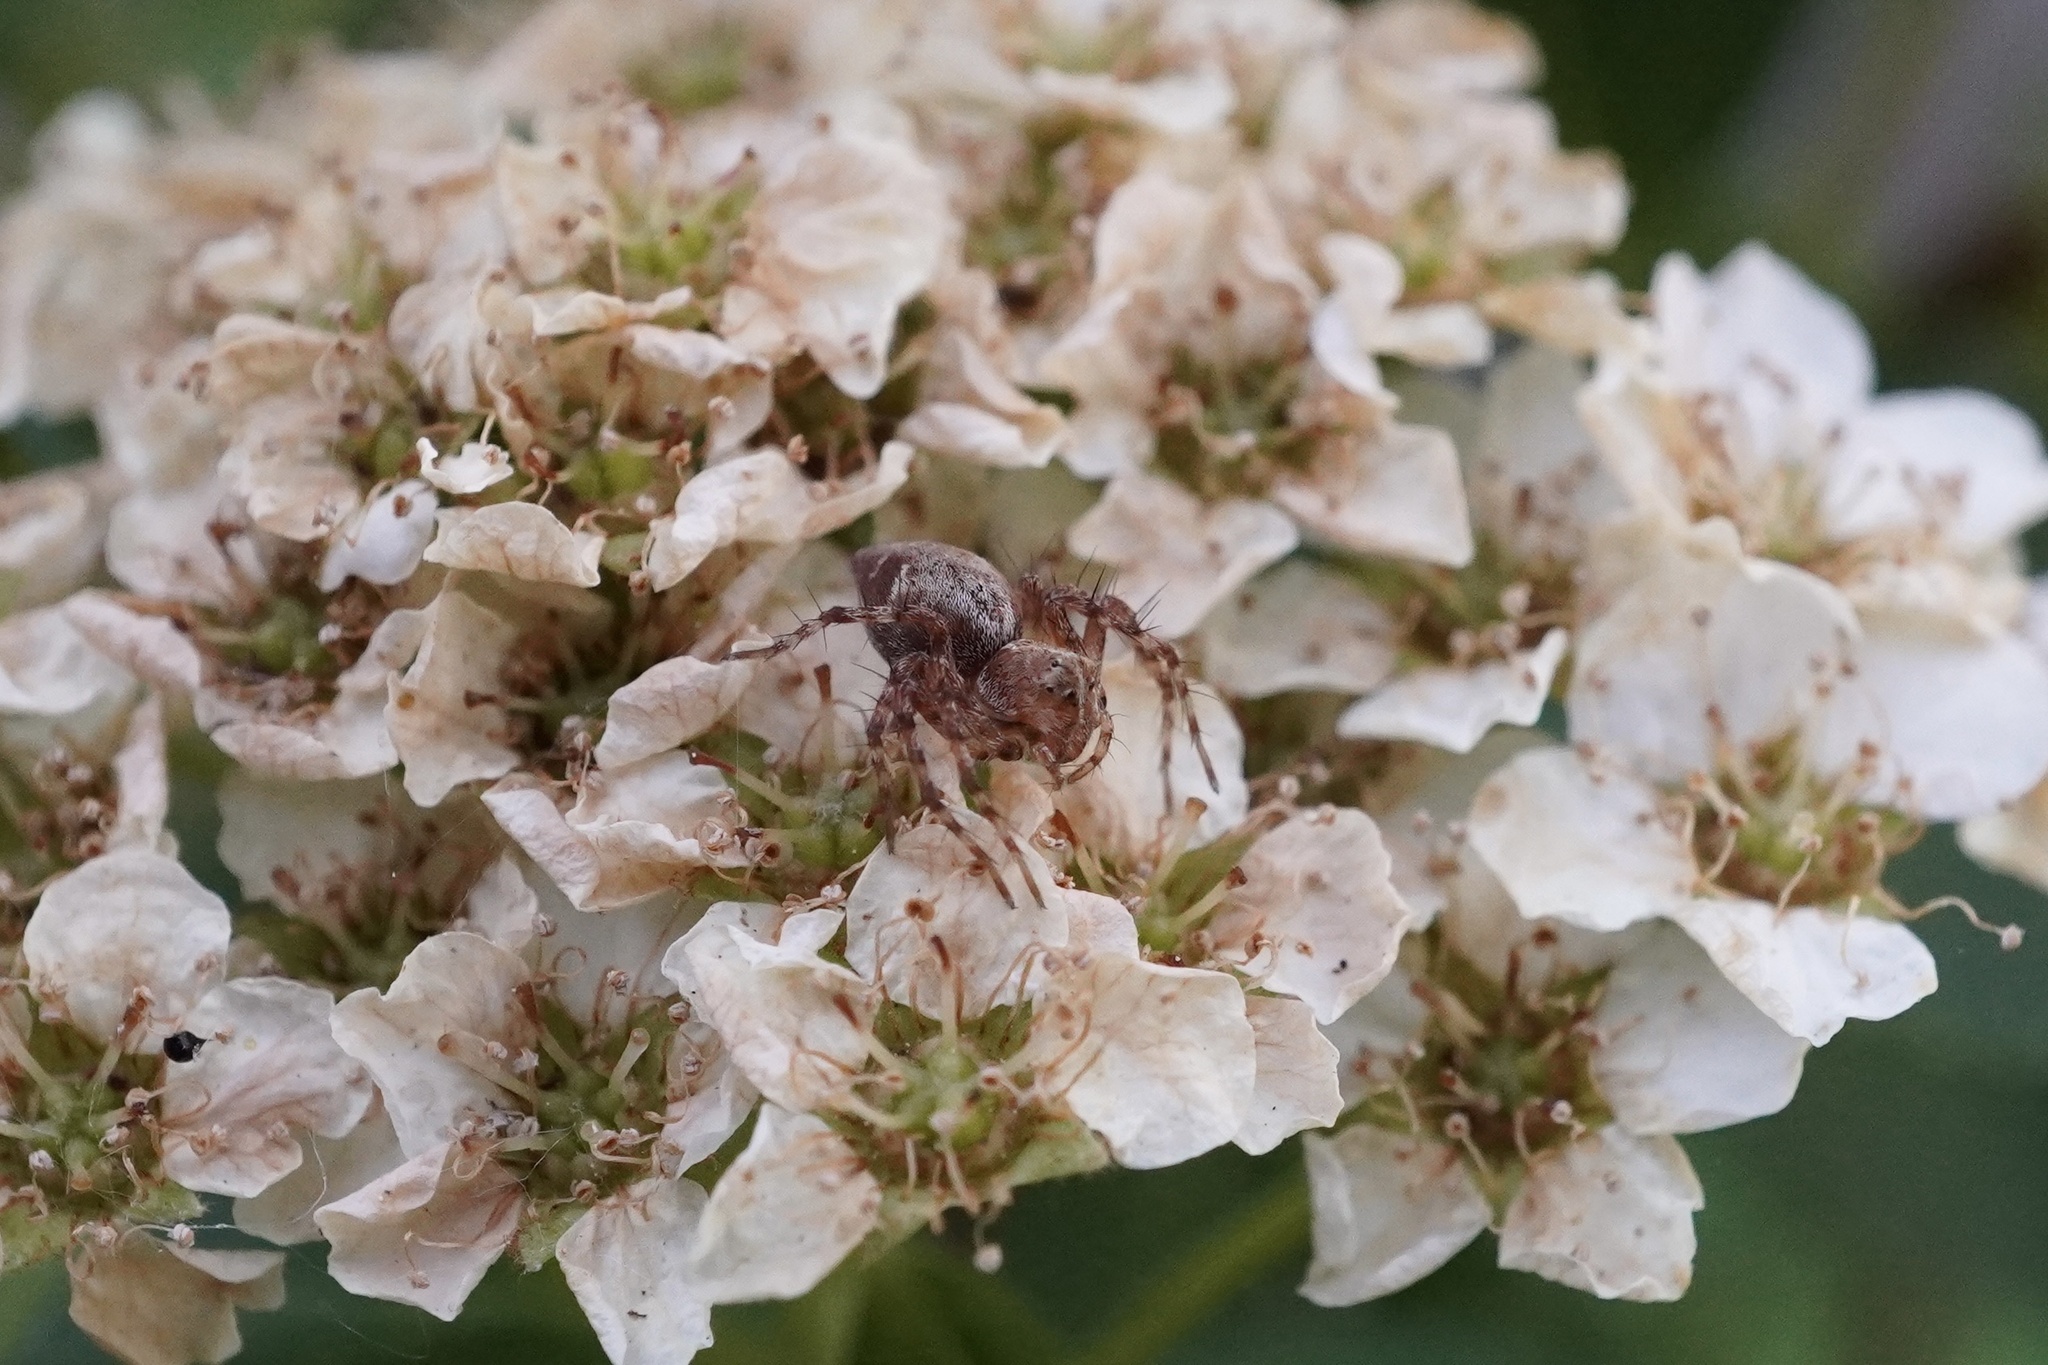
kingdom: Animalia
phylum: Arthropoda
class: Arachnida
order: Araneae
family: Oxyopidae
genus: Oxyopes
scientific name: Oxyopes scalaris
